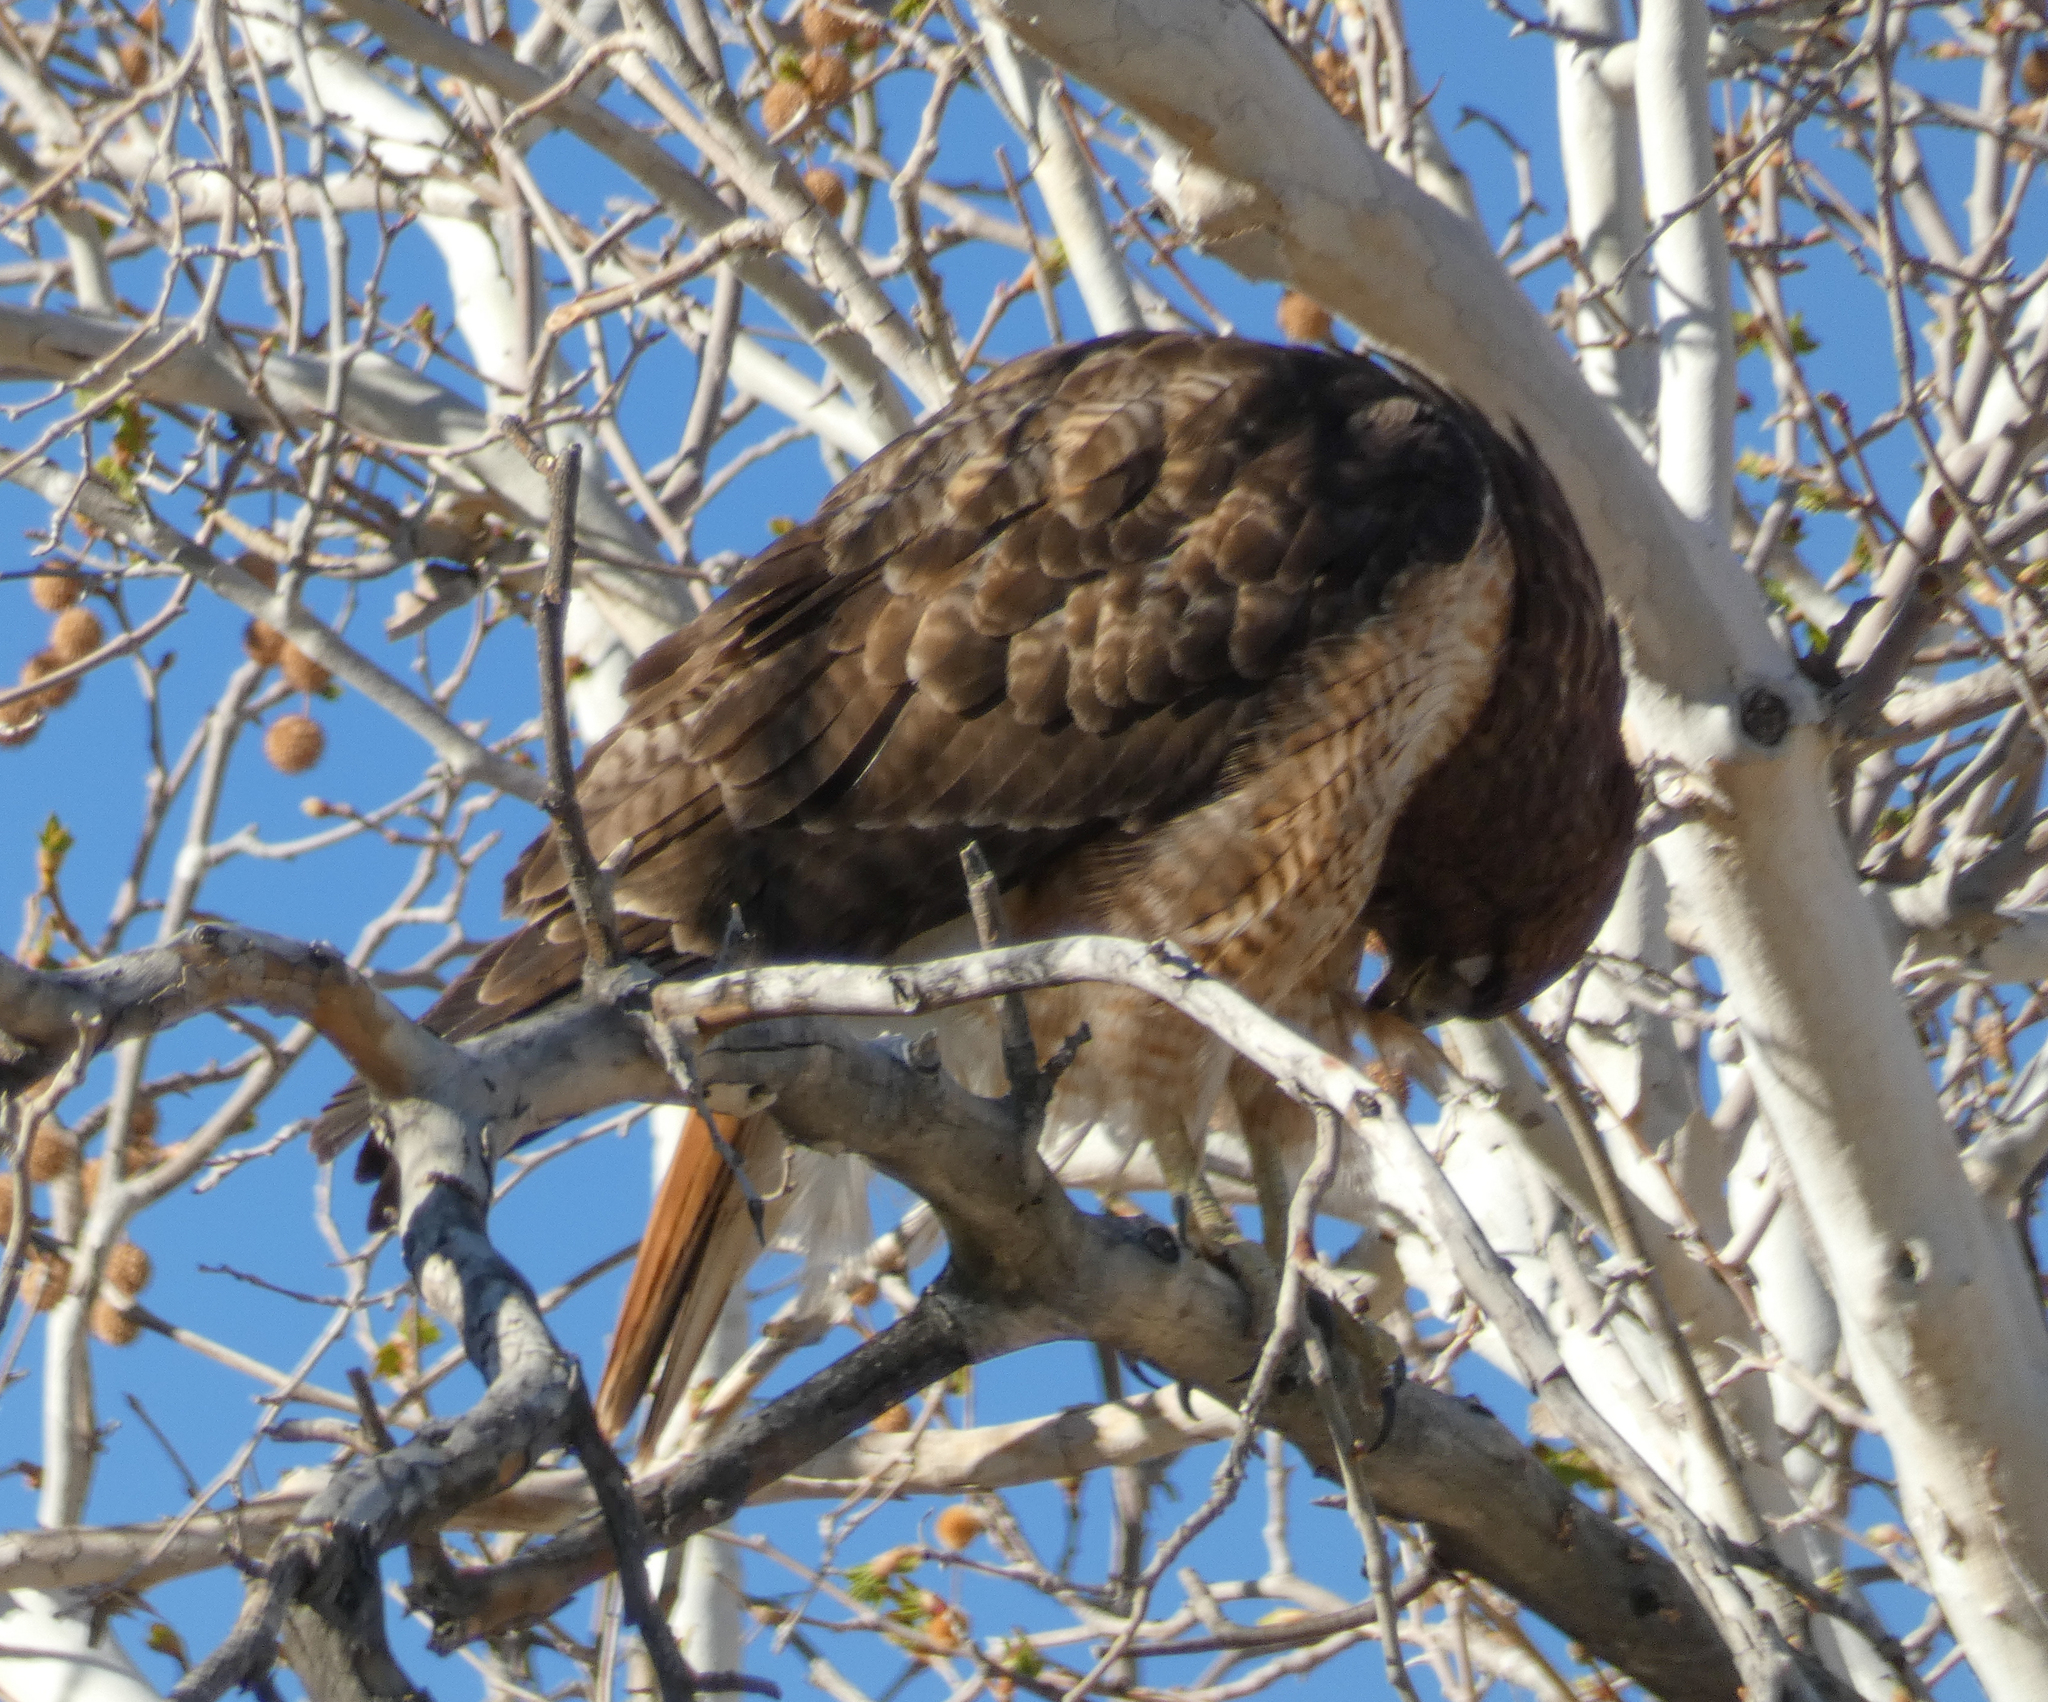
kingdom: Animalia
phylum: Chordata
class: Aves
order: Accipitriformes
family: Accipitridae
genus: Buteo
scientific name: Buteo jamaicensis
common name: Red-tailed hawk
